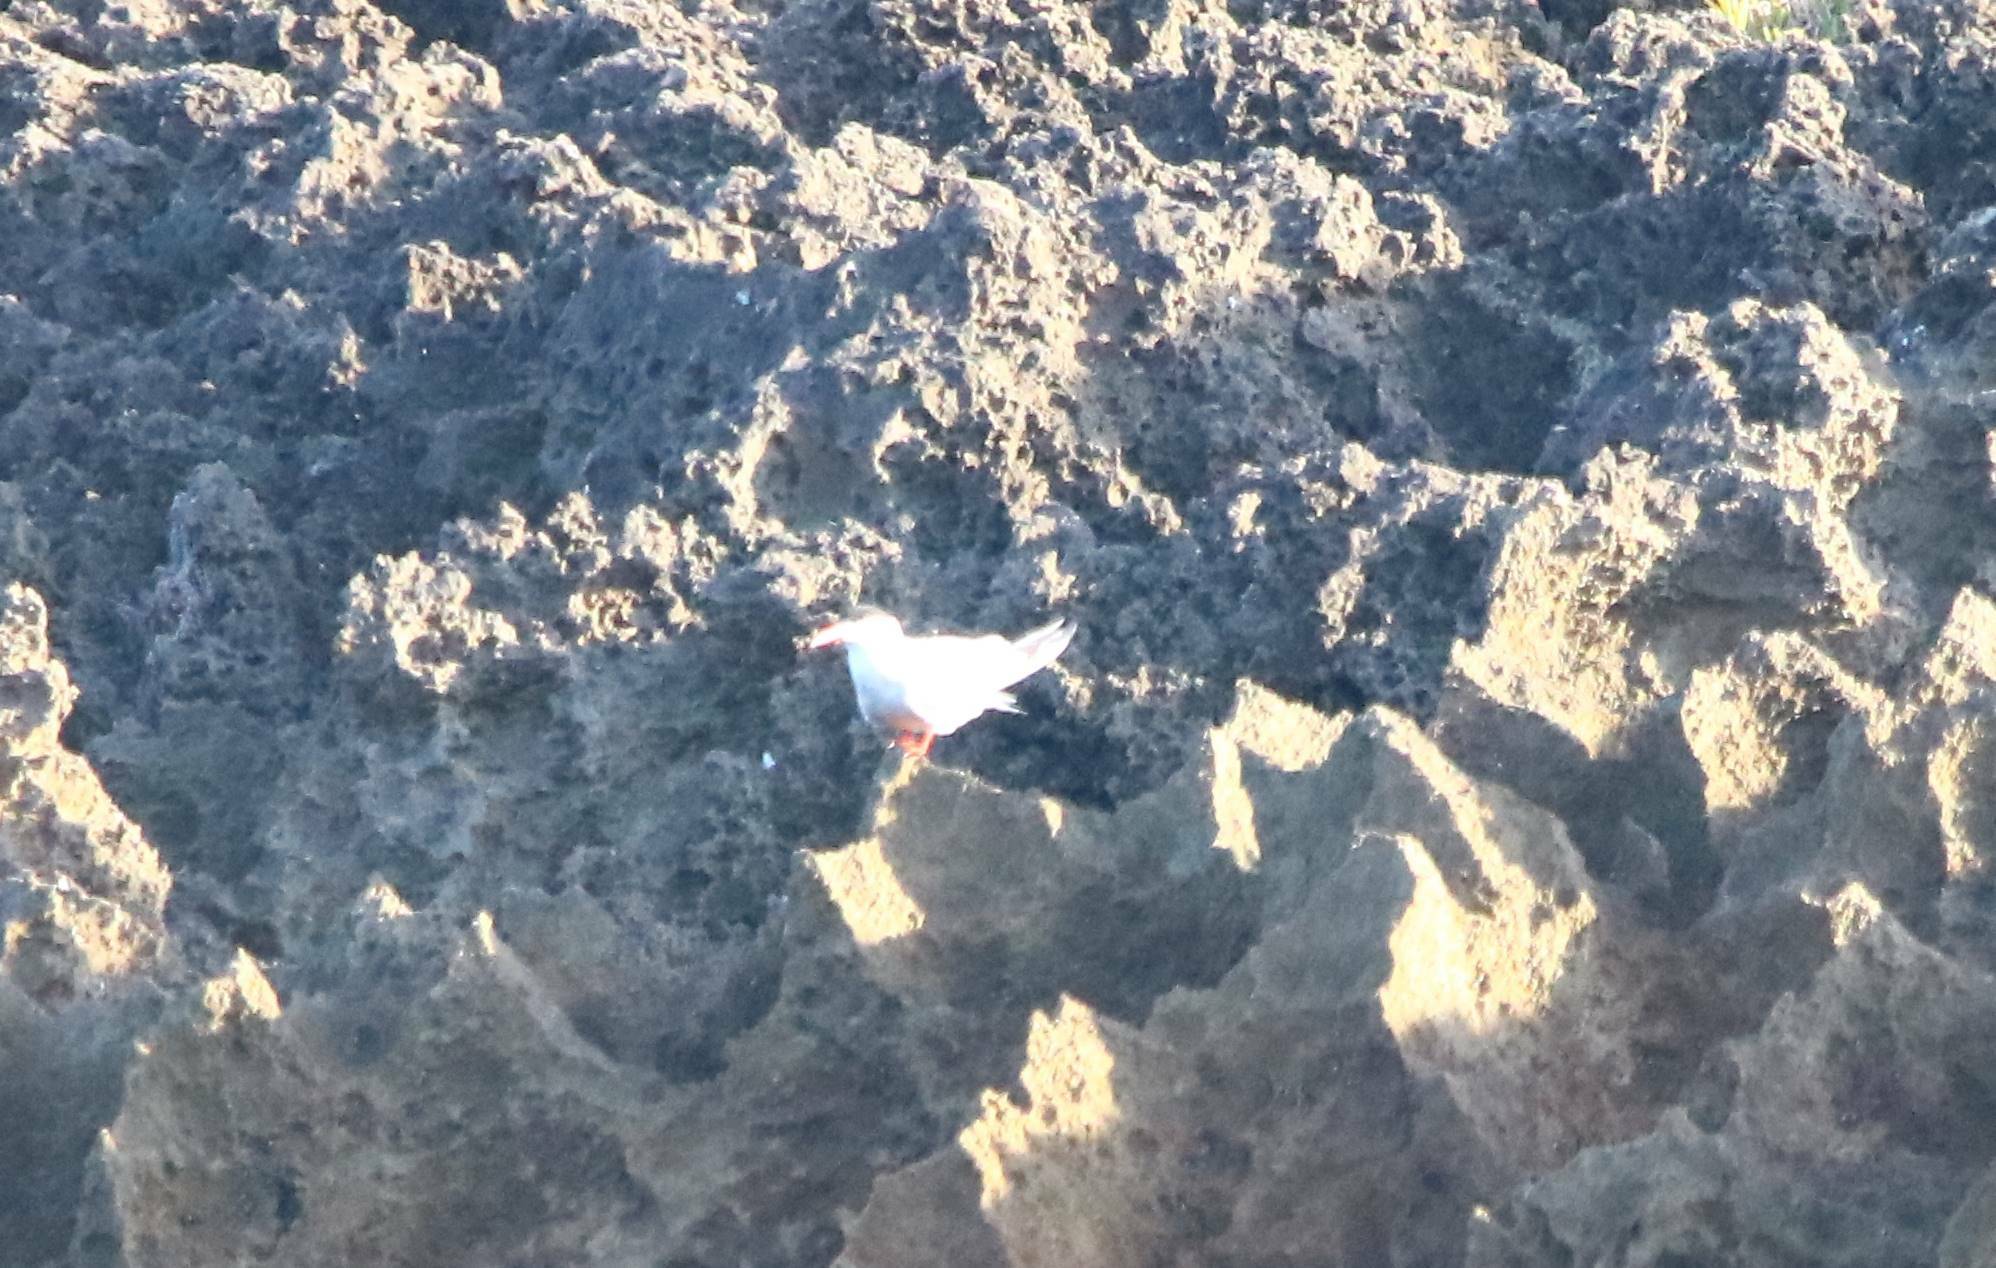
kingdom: Animalia
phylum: Chordata
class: Aves
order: Charadriiformes
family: Laridae
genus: Sterna
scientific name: Sterna hirundo
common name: Common tern
